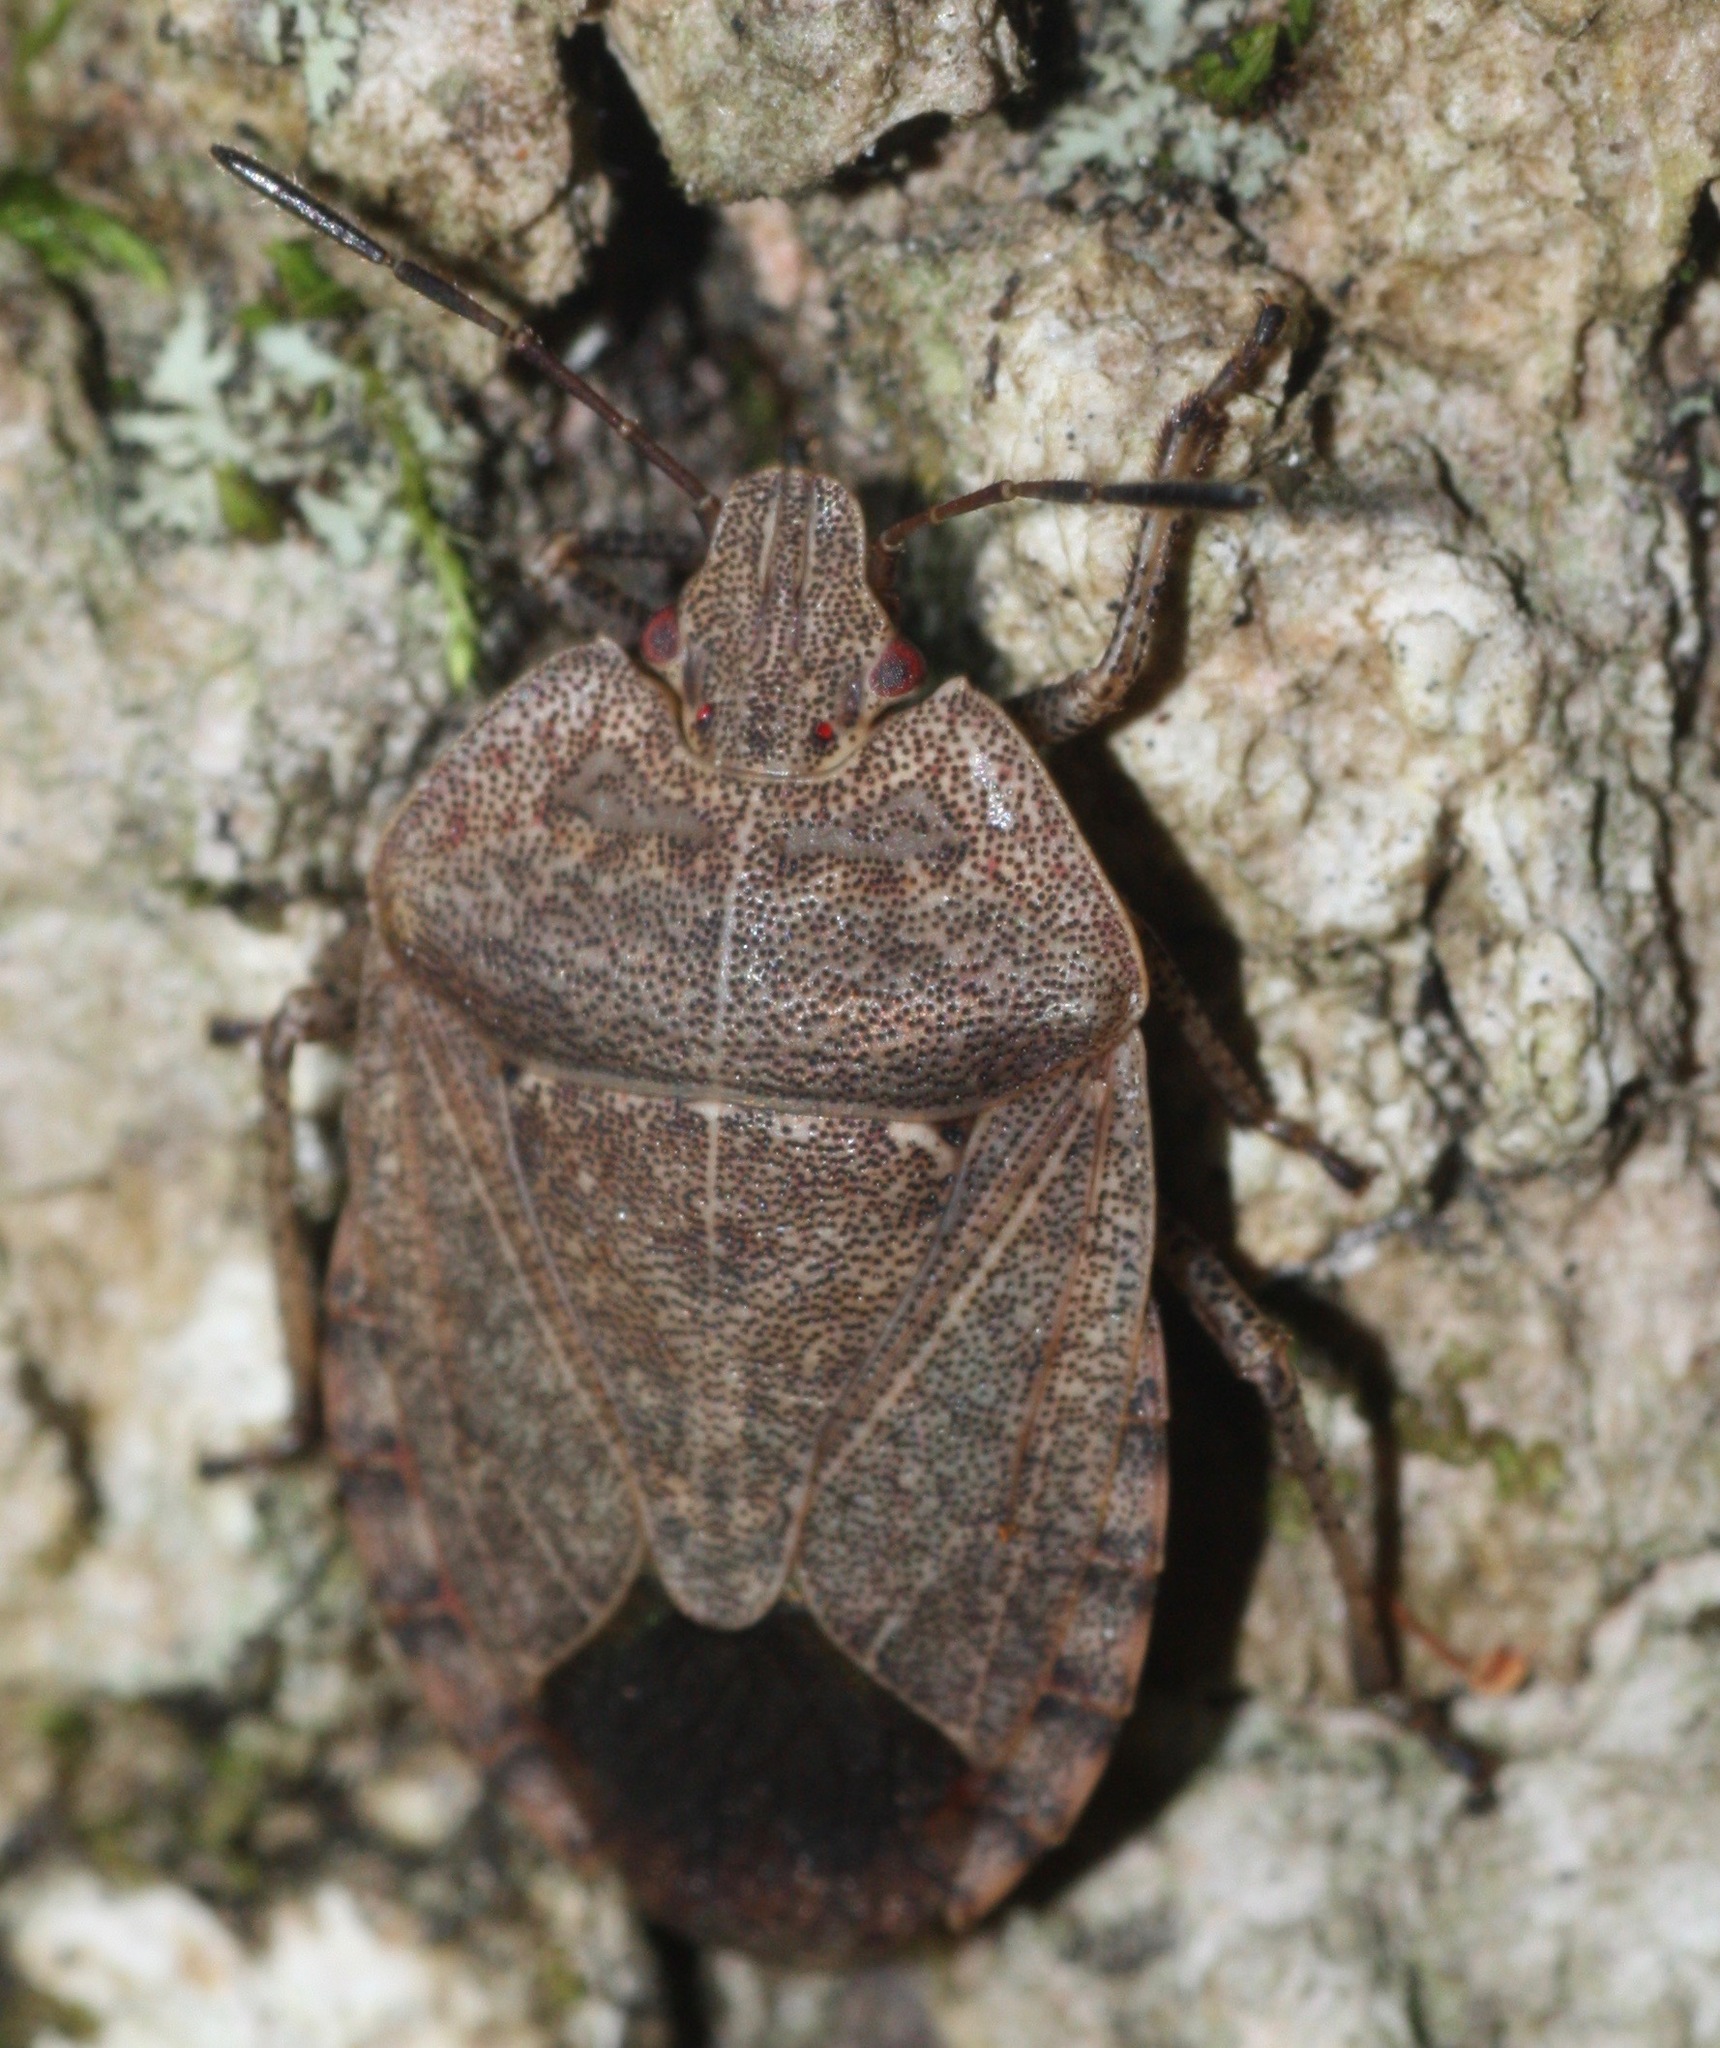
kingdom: Animalia
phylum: Arthropoda
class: Insecta
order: Hemiptera
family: Pentatomidae
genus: Menecles
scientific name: Menecles insertus
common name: Elf shoe stink bug
